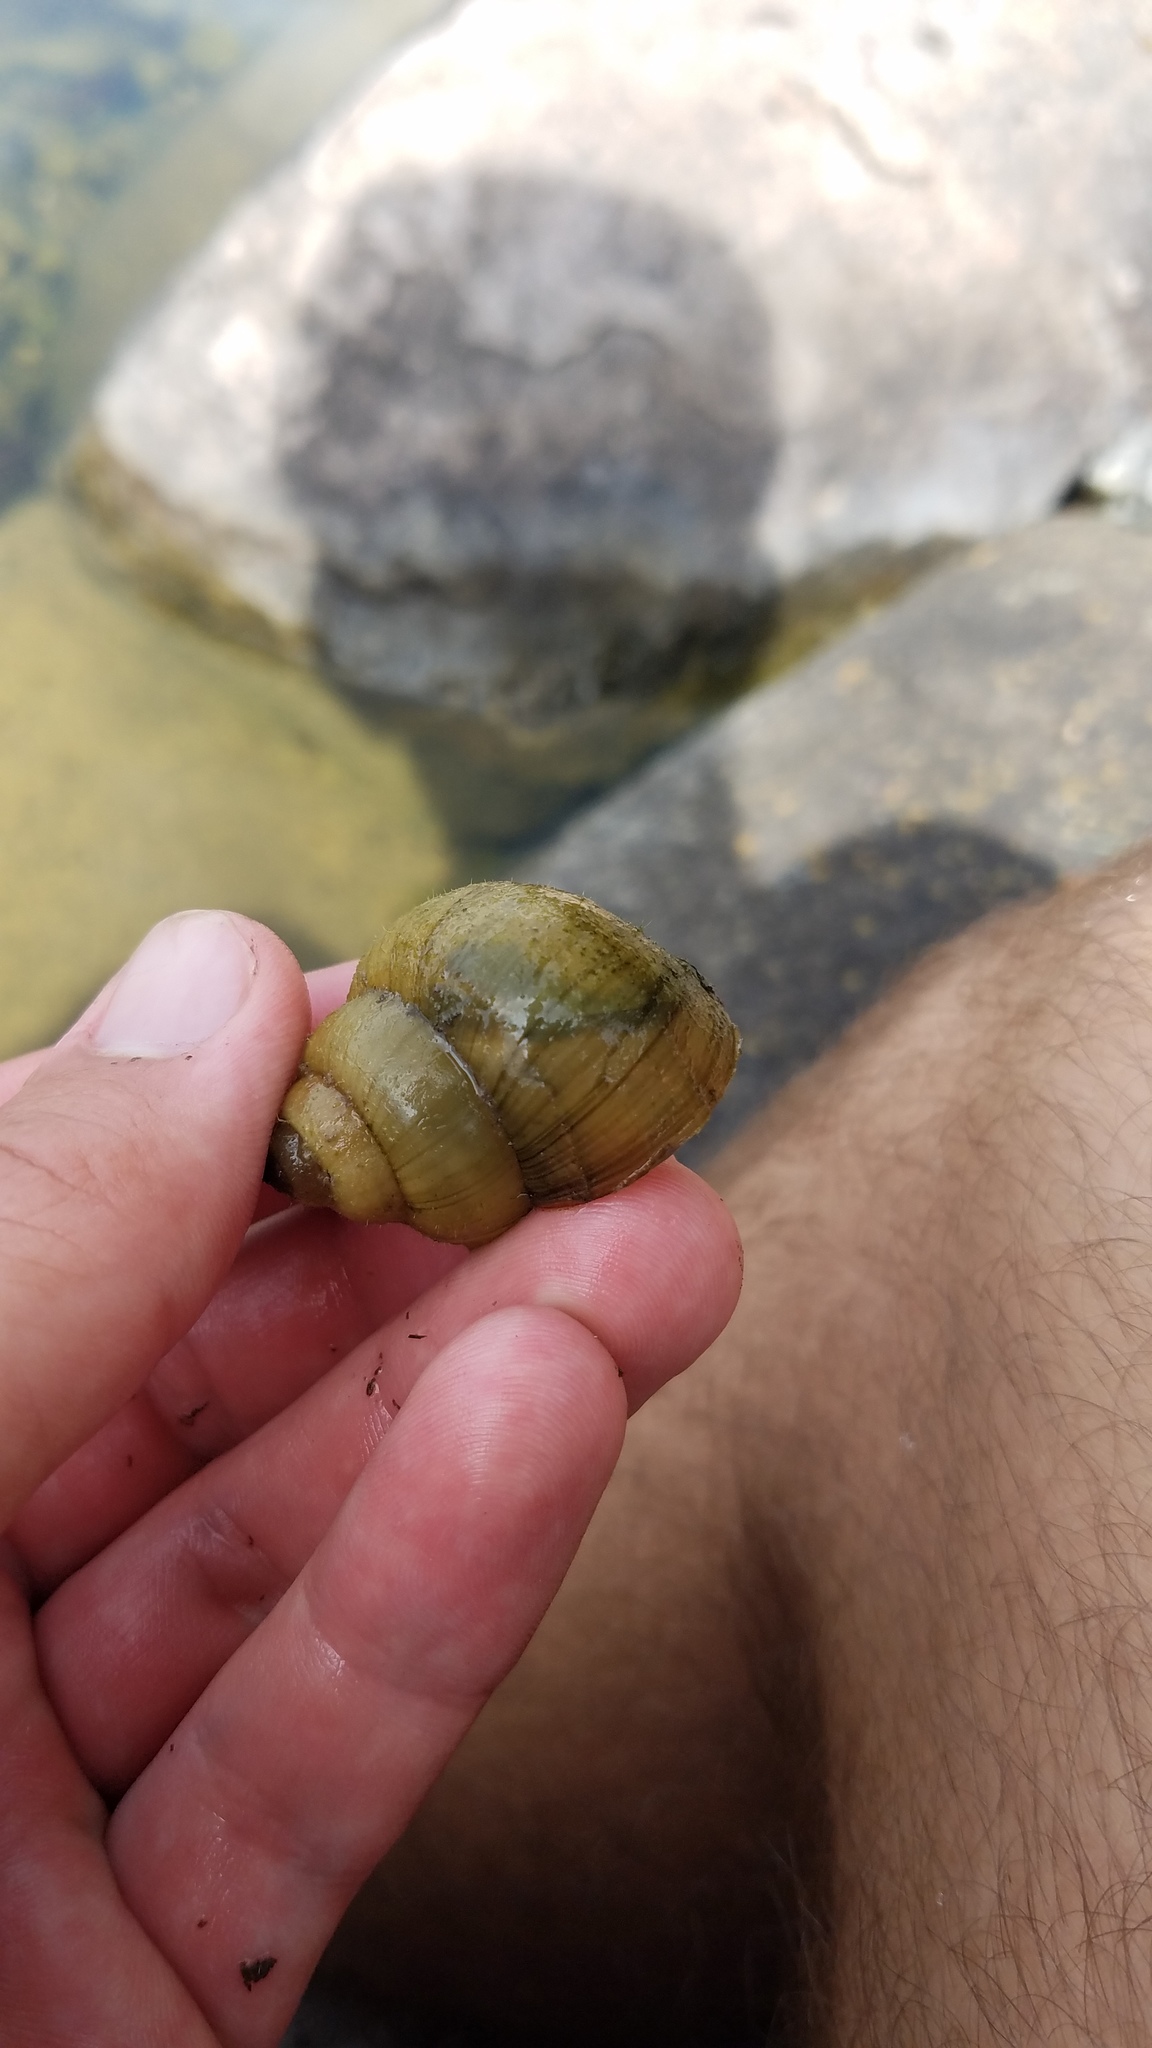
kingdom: Animalia
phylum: Mollusca
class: Gastropoda
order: Architaenioglossa
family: Viviparidae
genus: Cipangopaludina
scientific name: Cipangopaludina chinensis
